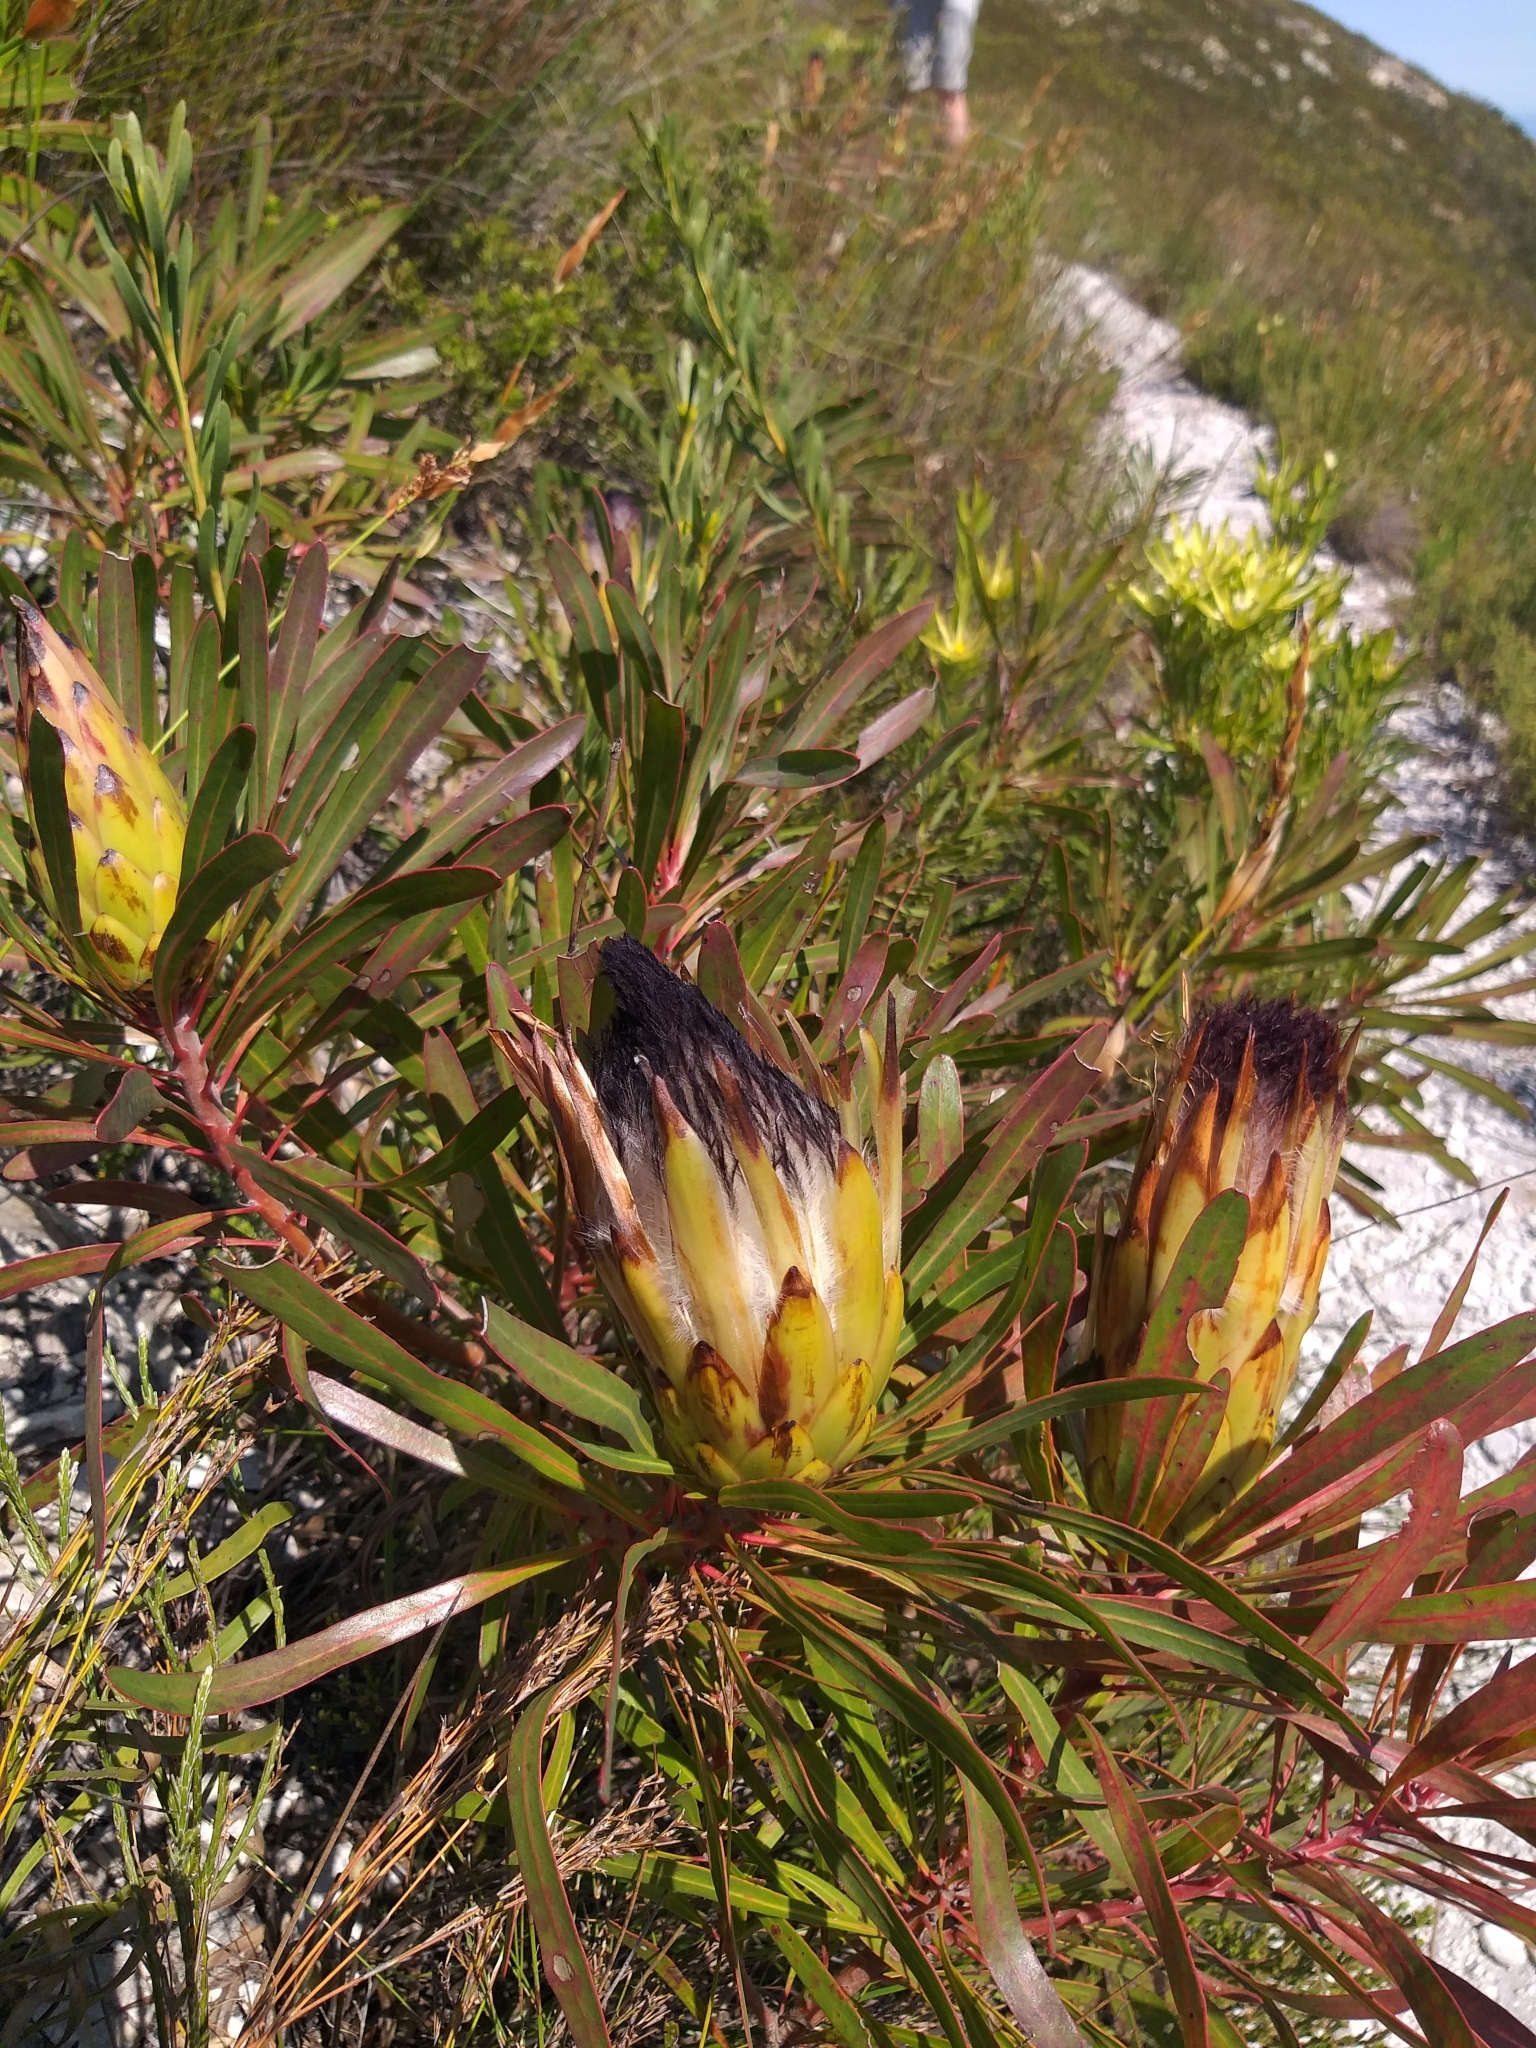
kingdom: Plantae
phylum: Tracheophyta
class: Magnoliopsida
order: Proteales
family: Proteaceae
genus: Protea
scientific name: Protea longifolia
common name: Long-leaf sugarbush
